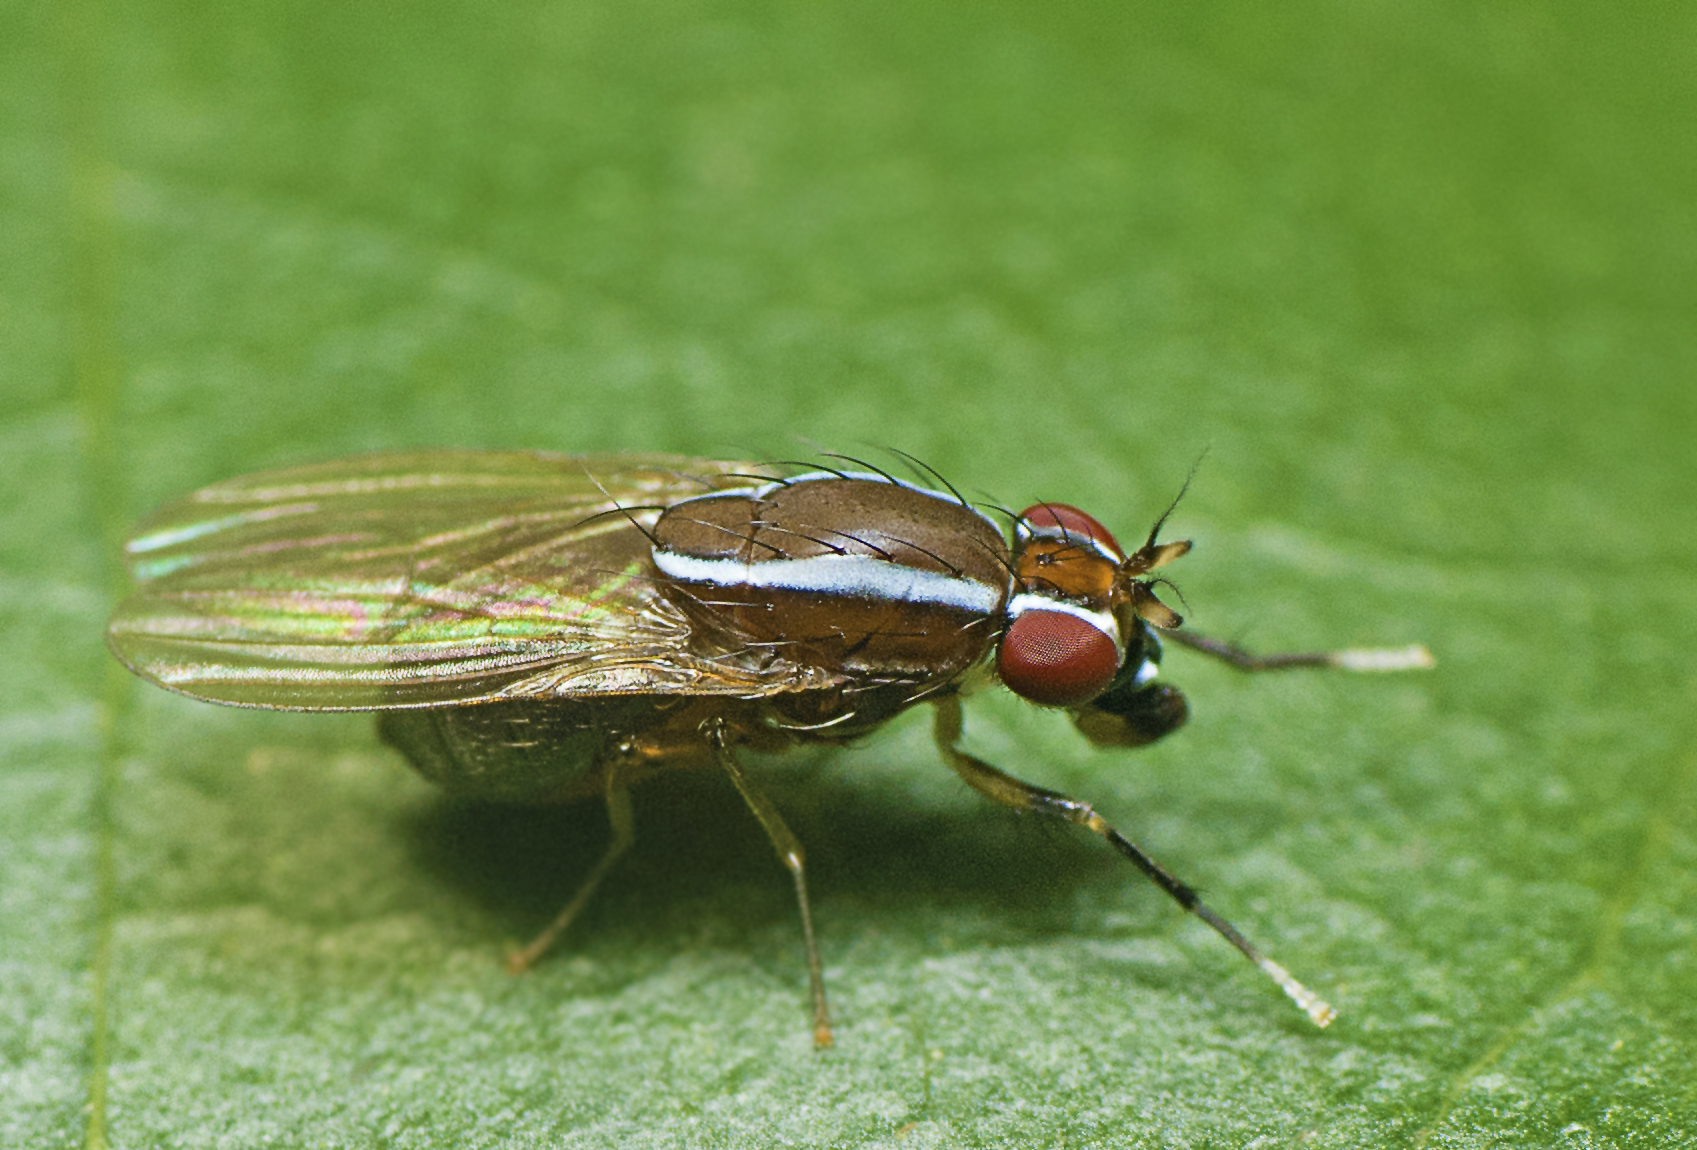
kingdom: Animalia
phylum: Arthropoda
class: Insecta
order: Diptera
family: Lauxaniidae
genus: Poecilohetaerus
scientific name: Poecilohetaerus pinnatus
